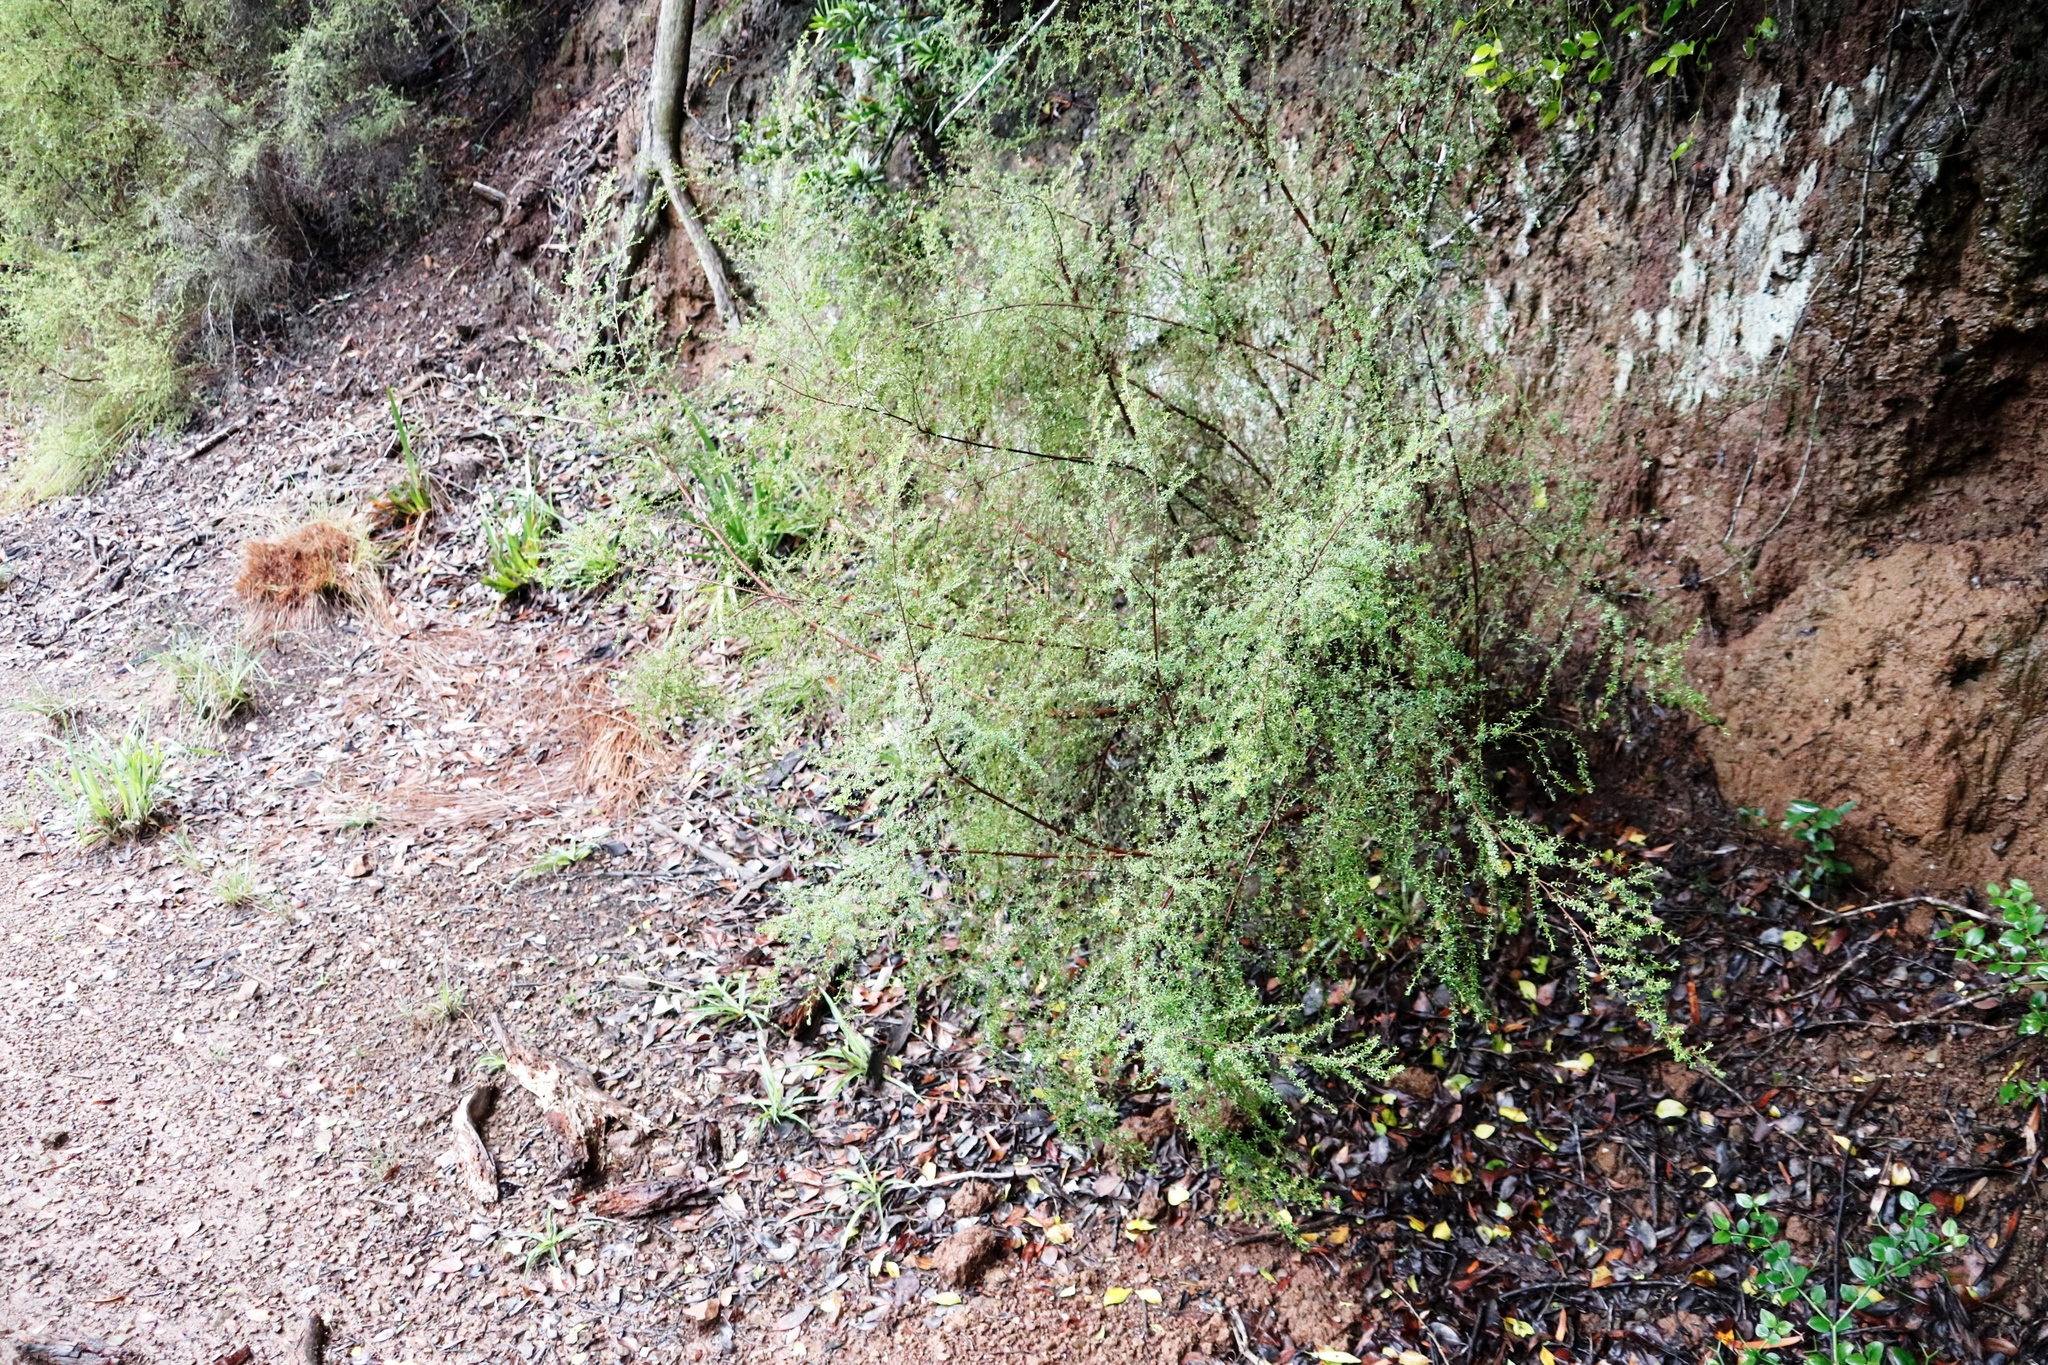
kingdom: Plantae
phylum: Tracheophyta
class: Magnoliopsida
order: Rosales
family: Rosaceae
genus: Cliffortia
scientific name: Cliffortia serpyllifolia
